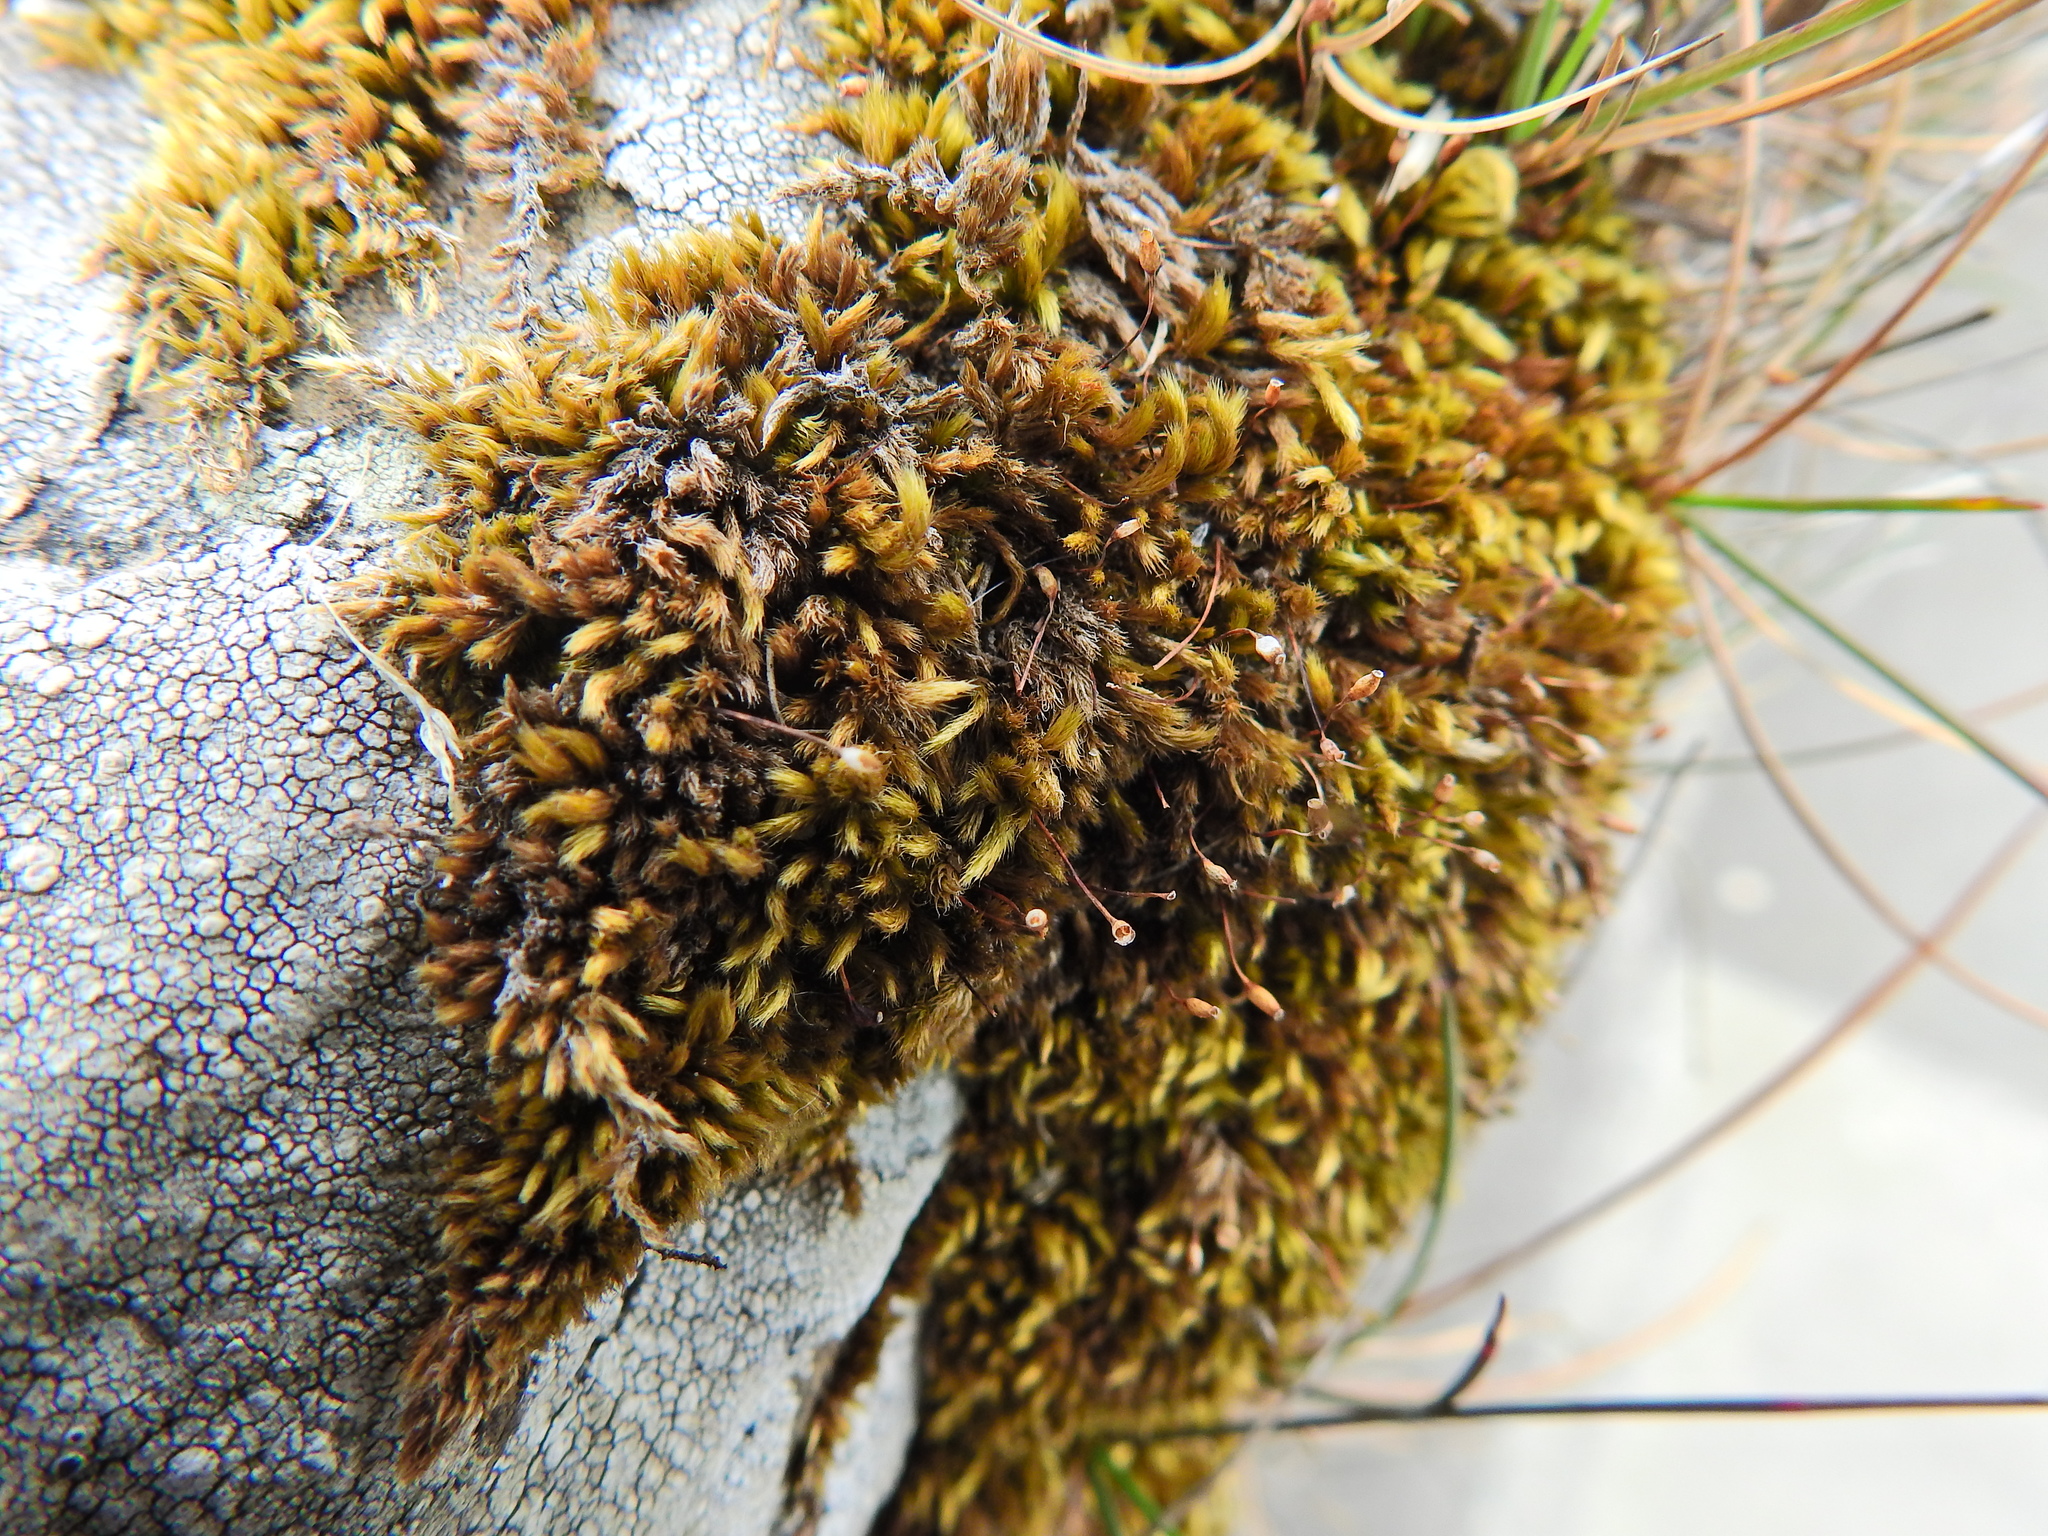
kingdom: Plantae
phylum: Bryophyta
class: Bryopsida
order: Hypnales
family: Brachytheciaceae
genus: Homalothecium
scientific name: Homalothecium sericeum
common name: Silky wall feather-moss
